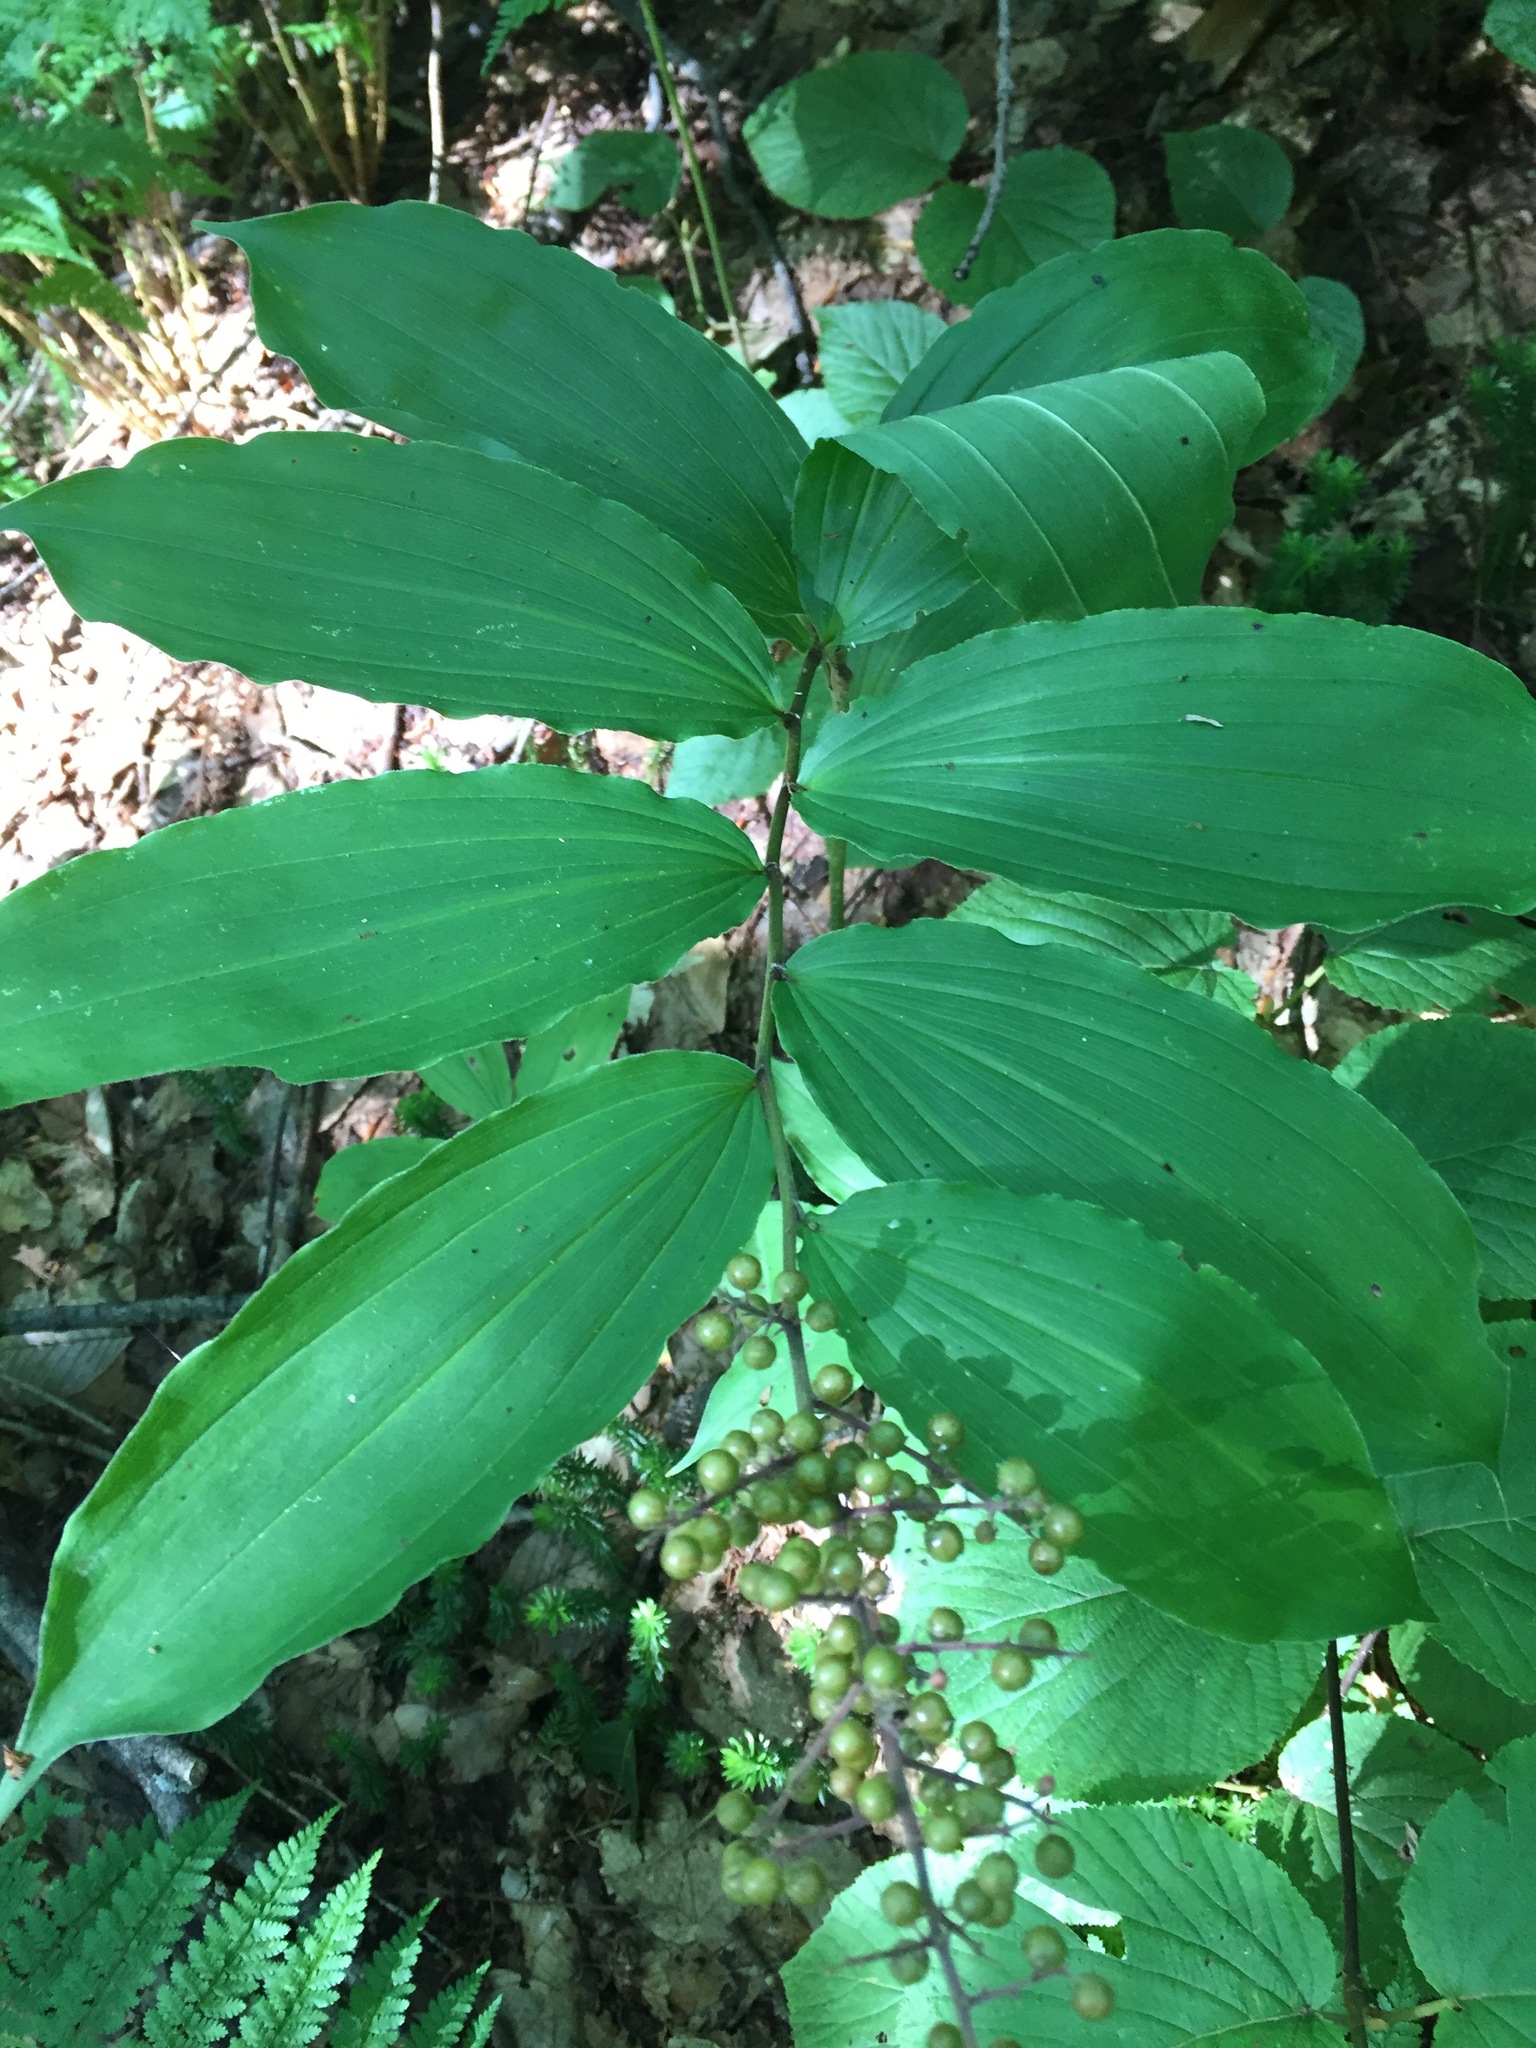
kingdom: Plantae
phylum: Tracheophyta
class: Liliopsida
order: Asparagales
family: Asparagaceae
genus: Maianthemum
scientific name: Maianthemum racemosum
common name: False spikenard
